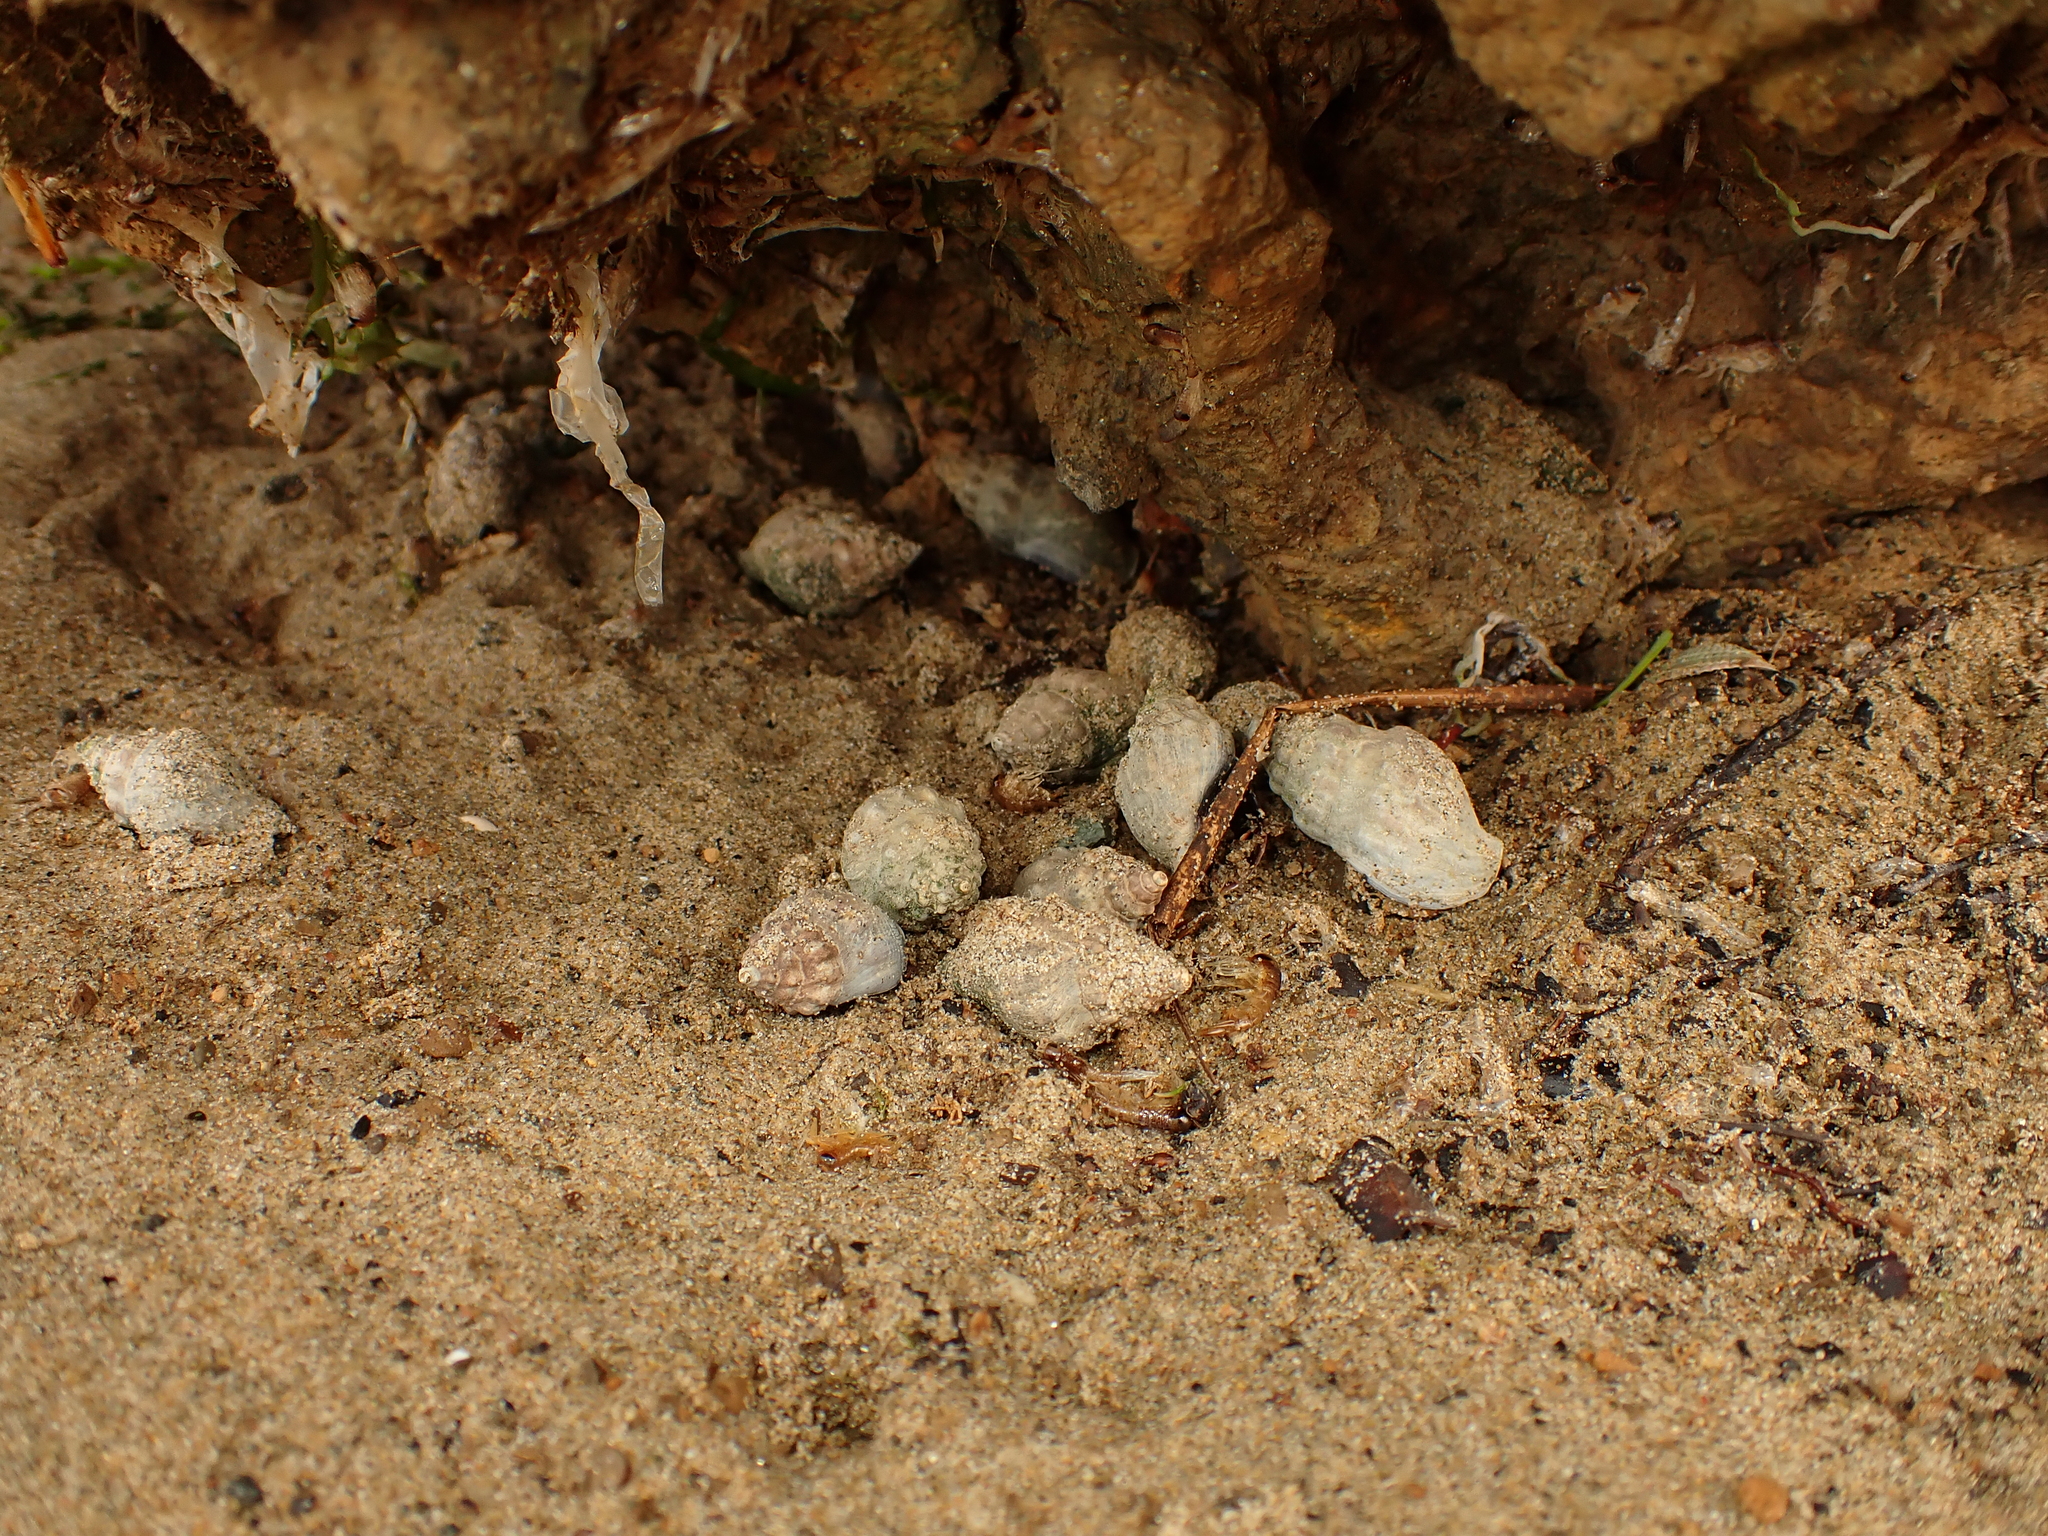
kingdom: Animalia
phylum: Mollusca
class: Gastropoda
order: Neogastropoda
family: Cominellidae
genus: Cominella
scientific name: Cominella glandiformis
